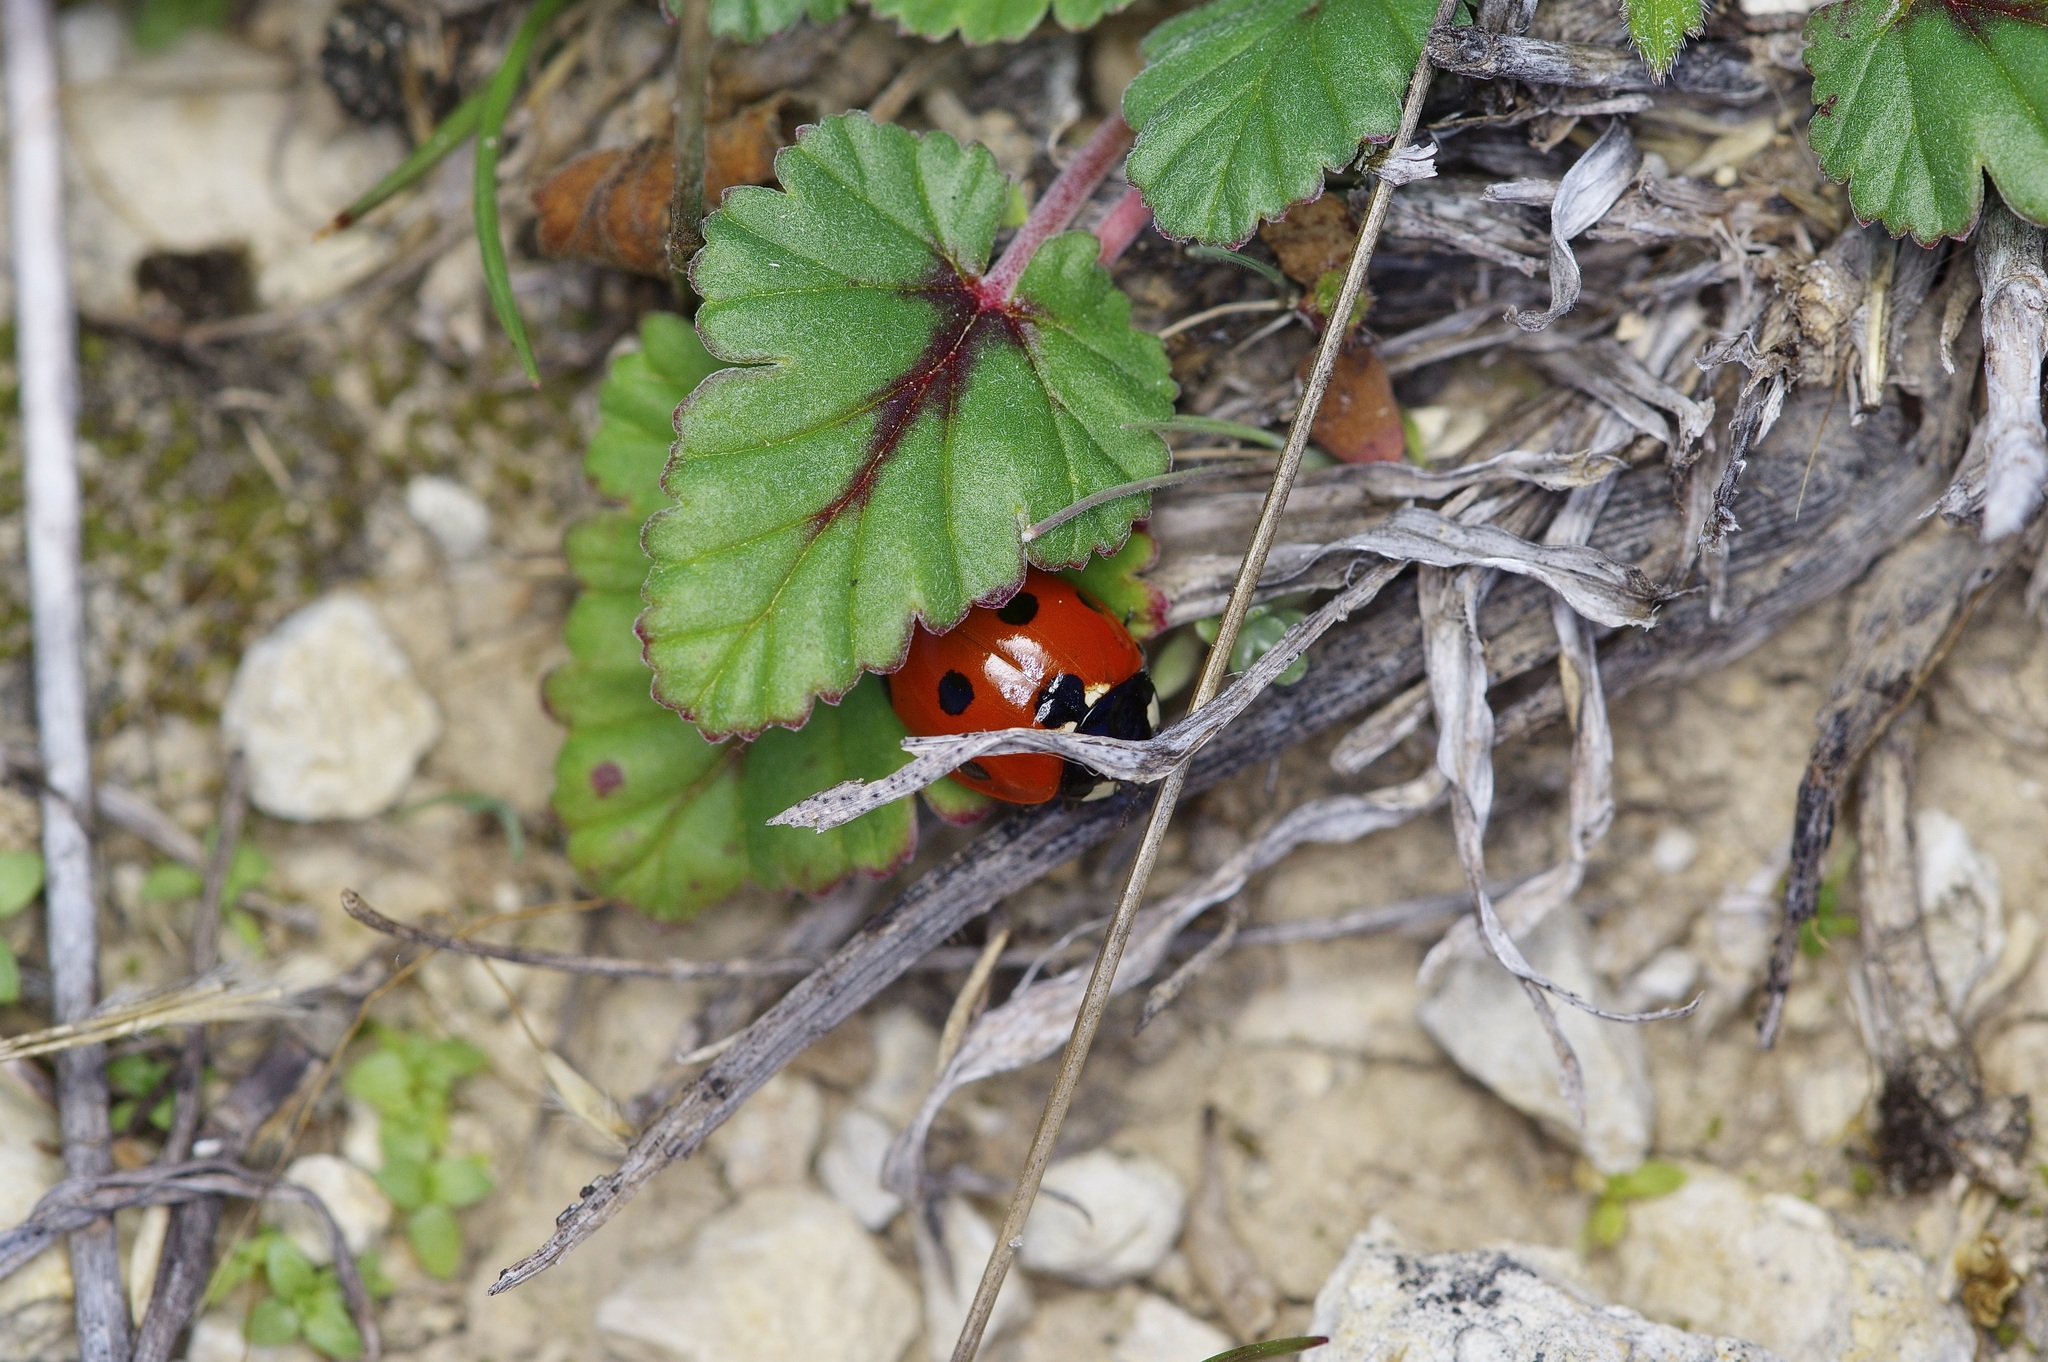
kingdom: Animalia
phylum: Arthropoda
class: Insecta
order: Coleoptera
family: Coccinellidae
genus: Coccinella
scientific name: Coccinella septempunctata
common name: Sevenspotted lady beetle
